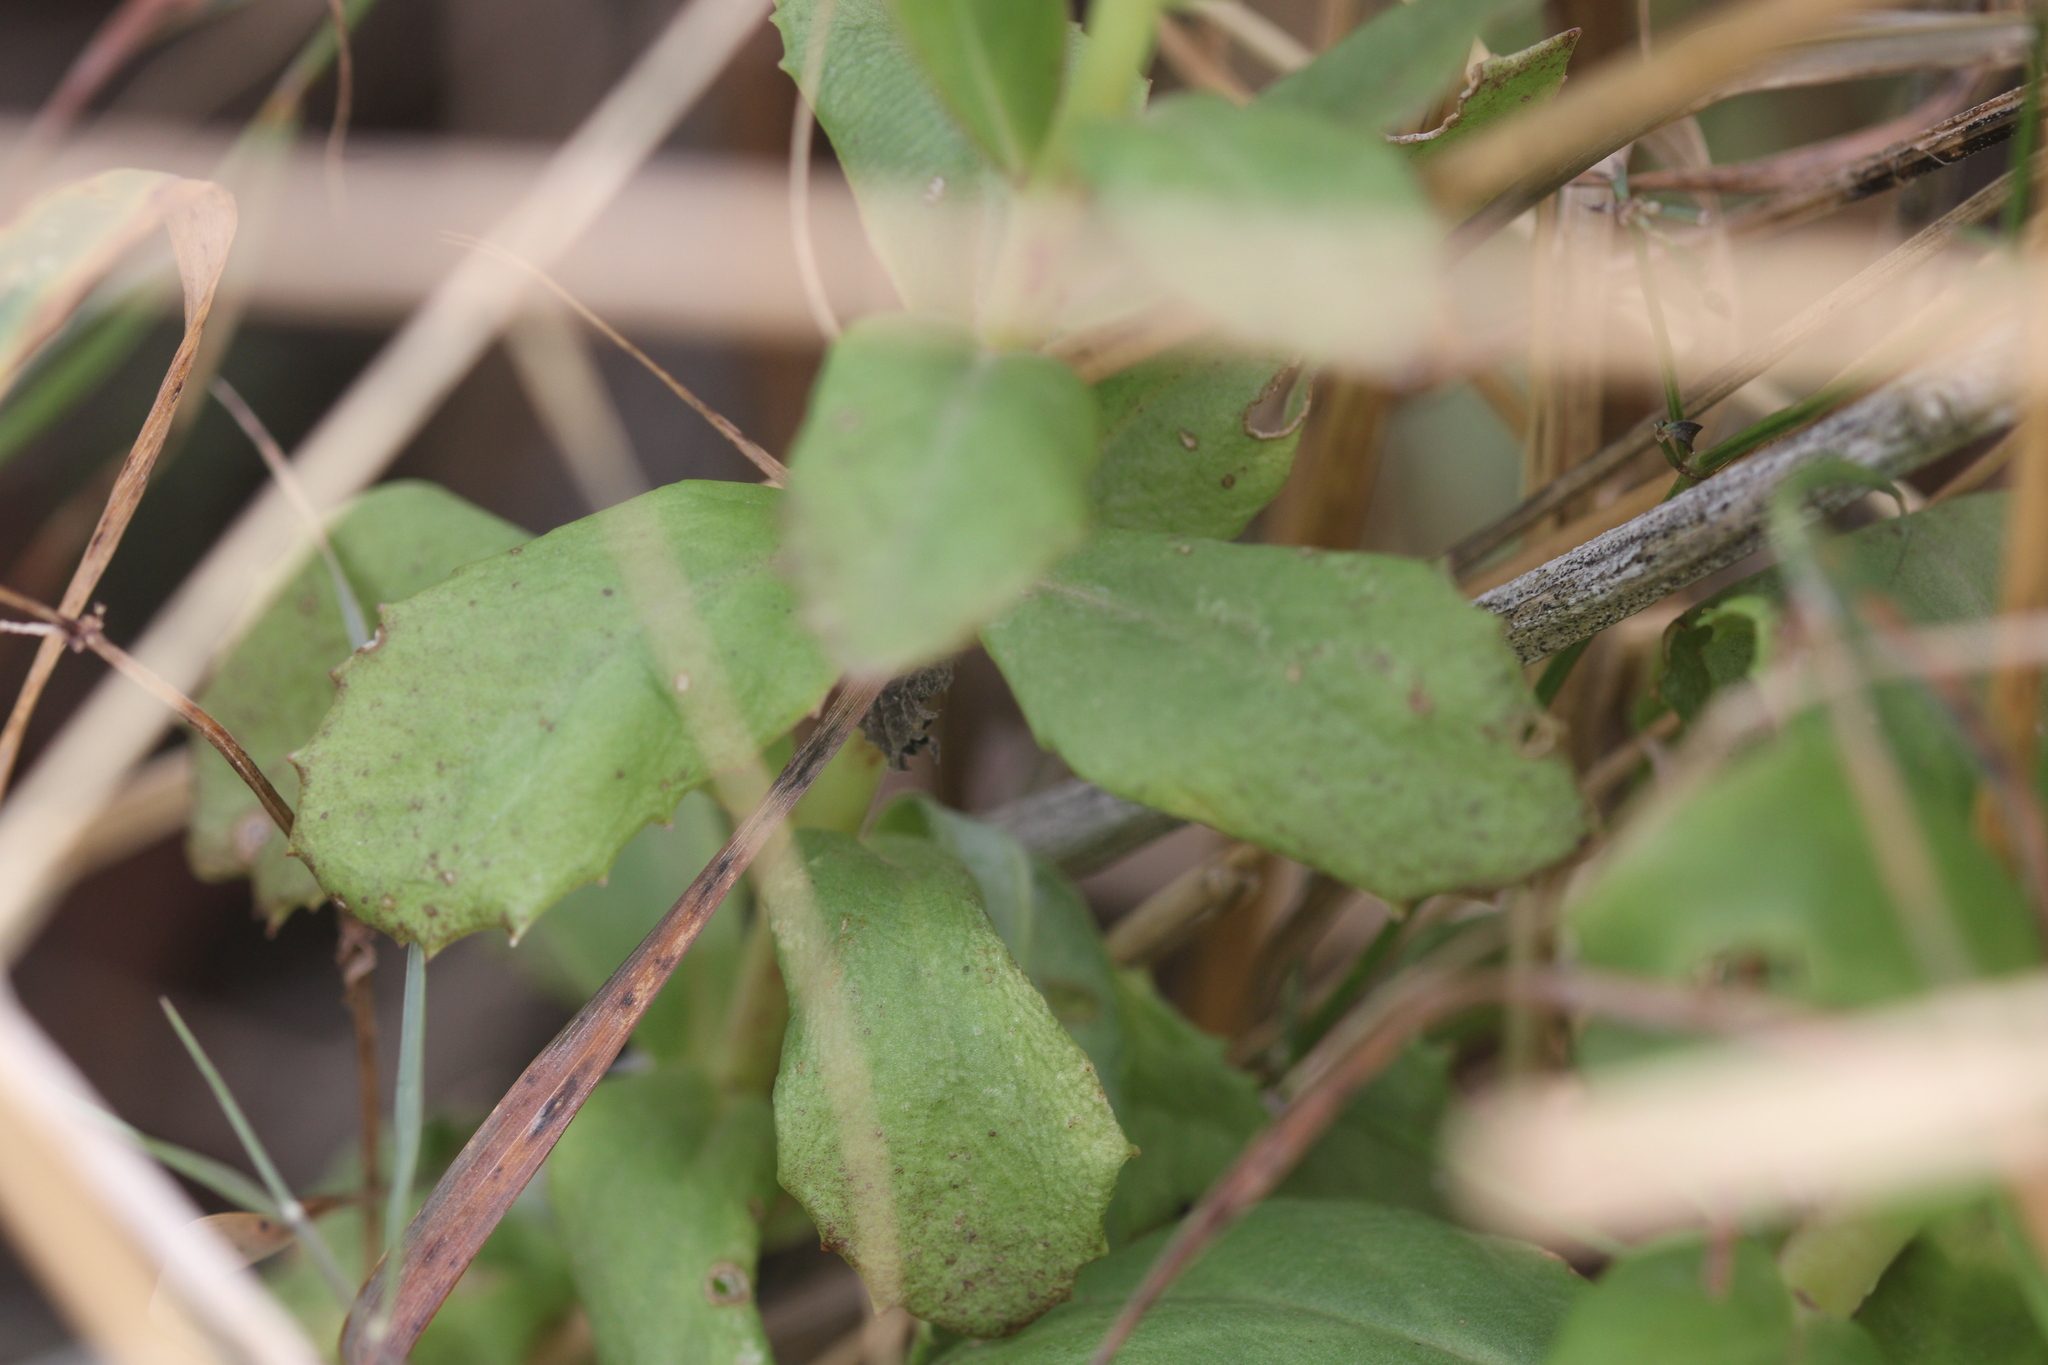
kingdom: Plantae
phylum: Tracheophyta
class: Magnoliopsida
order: Saxifragales
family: Crassulaceae
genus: Hylotelephium
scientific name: Hylotelephium maximum
